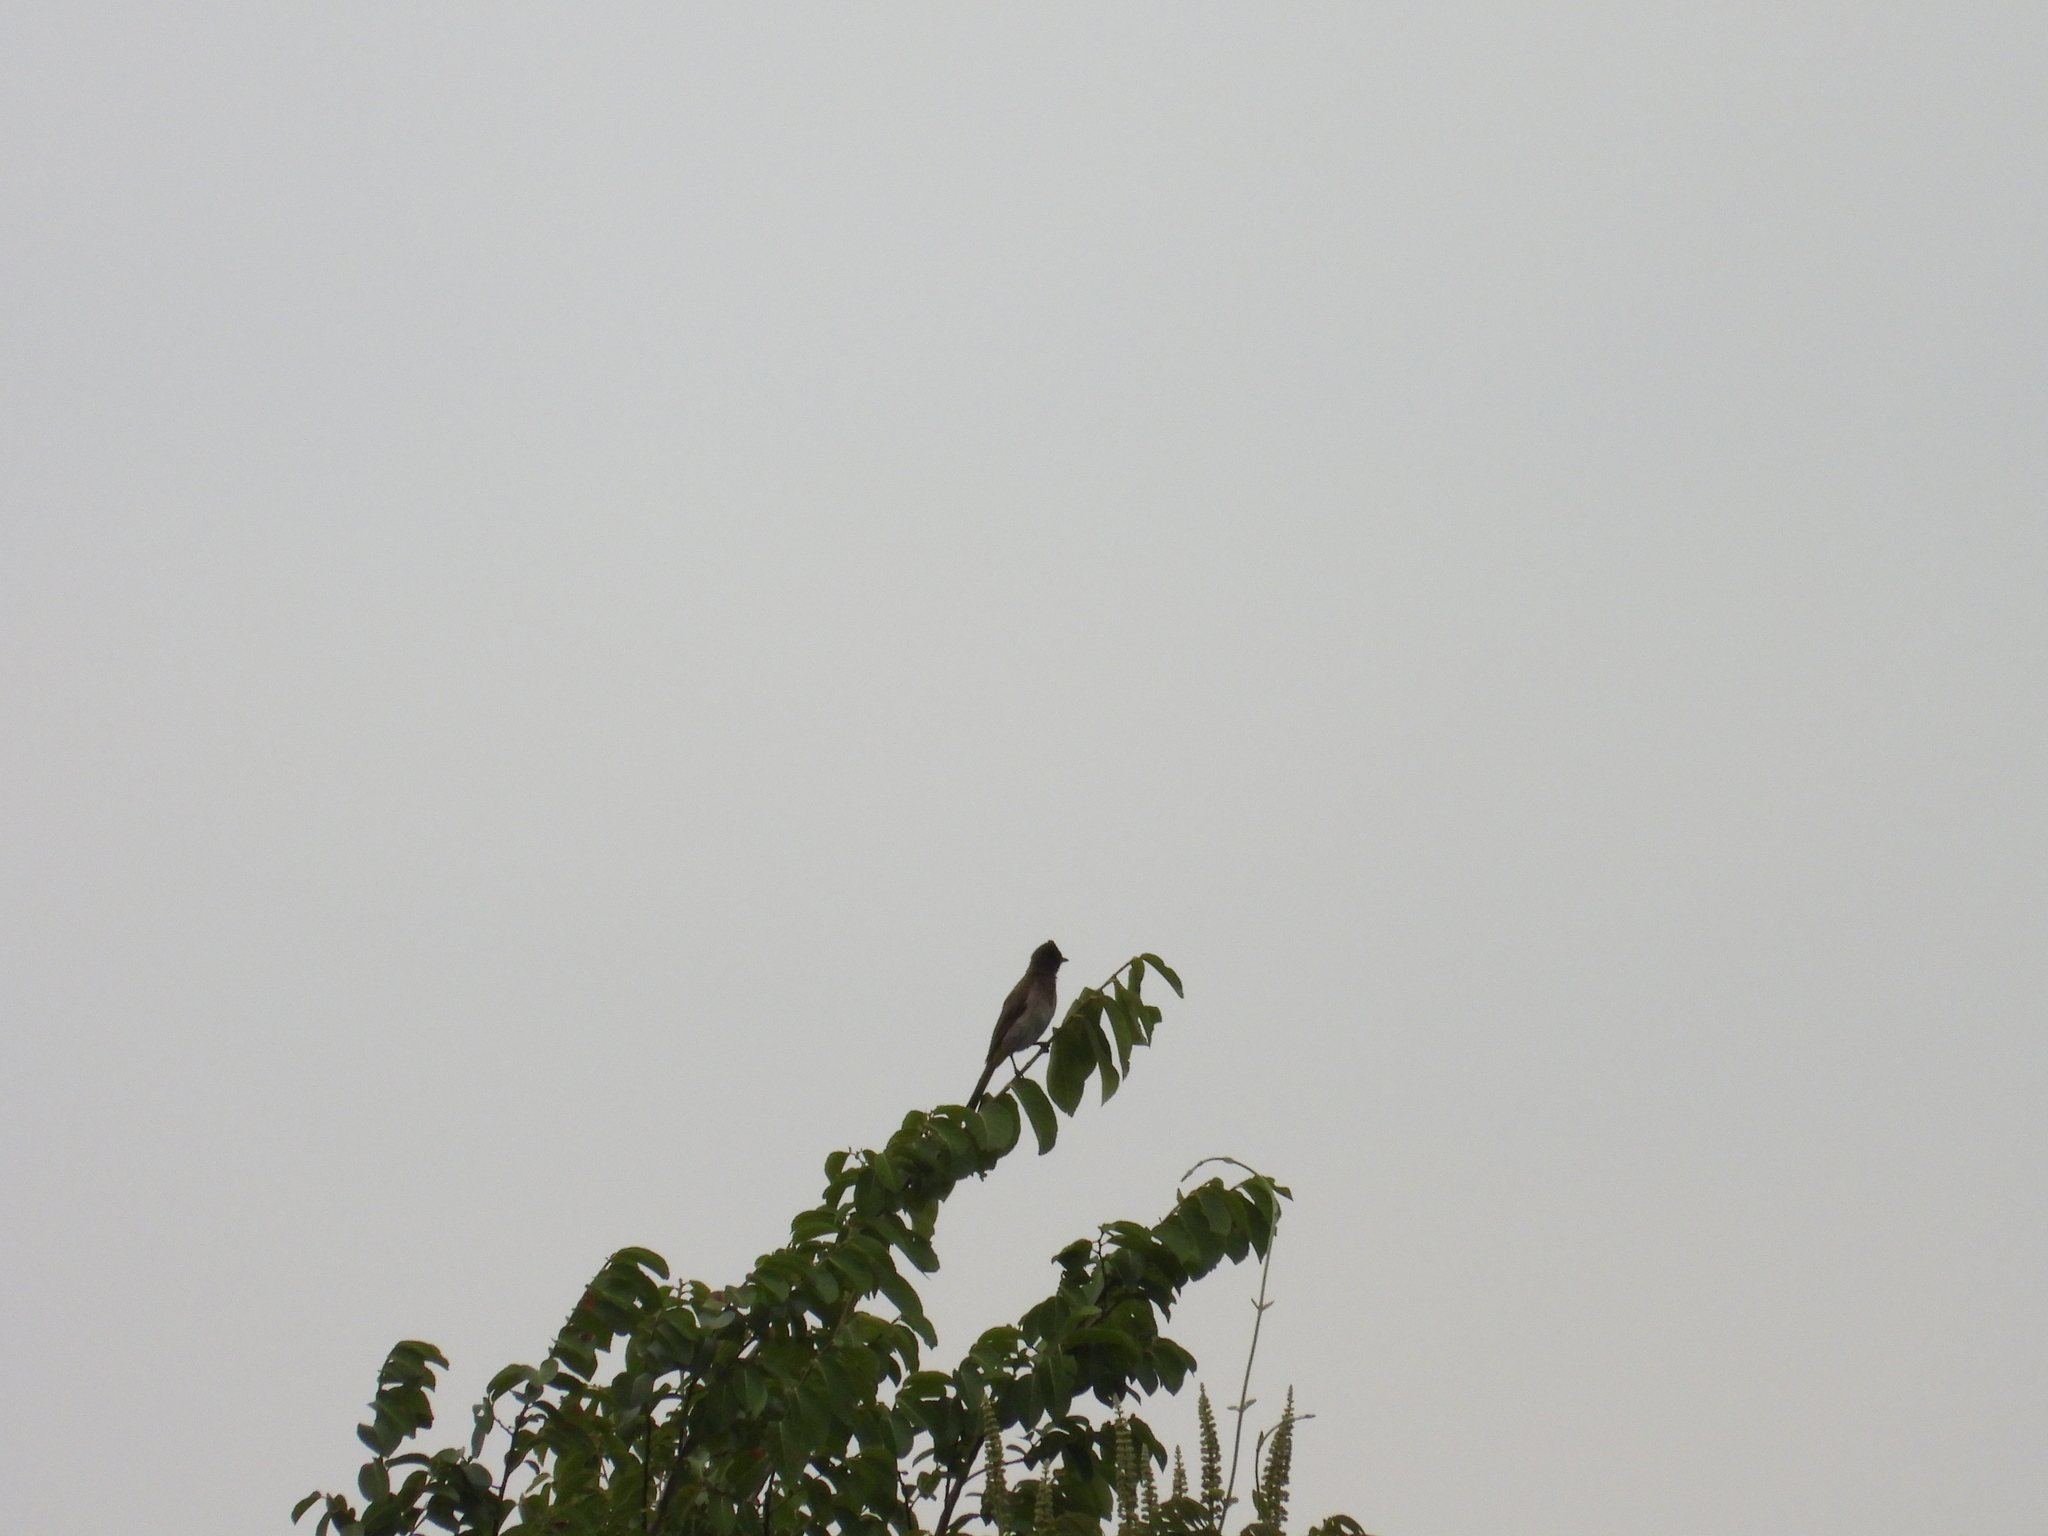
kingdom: Animalia
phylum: Chordata
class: Aves
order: Passeriformes
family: Pycnonotidae
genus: Pycnonotus
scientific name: Pycnonotus barbatus
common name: Common bulbul
